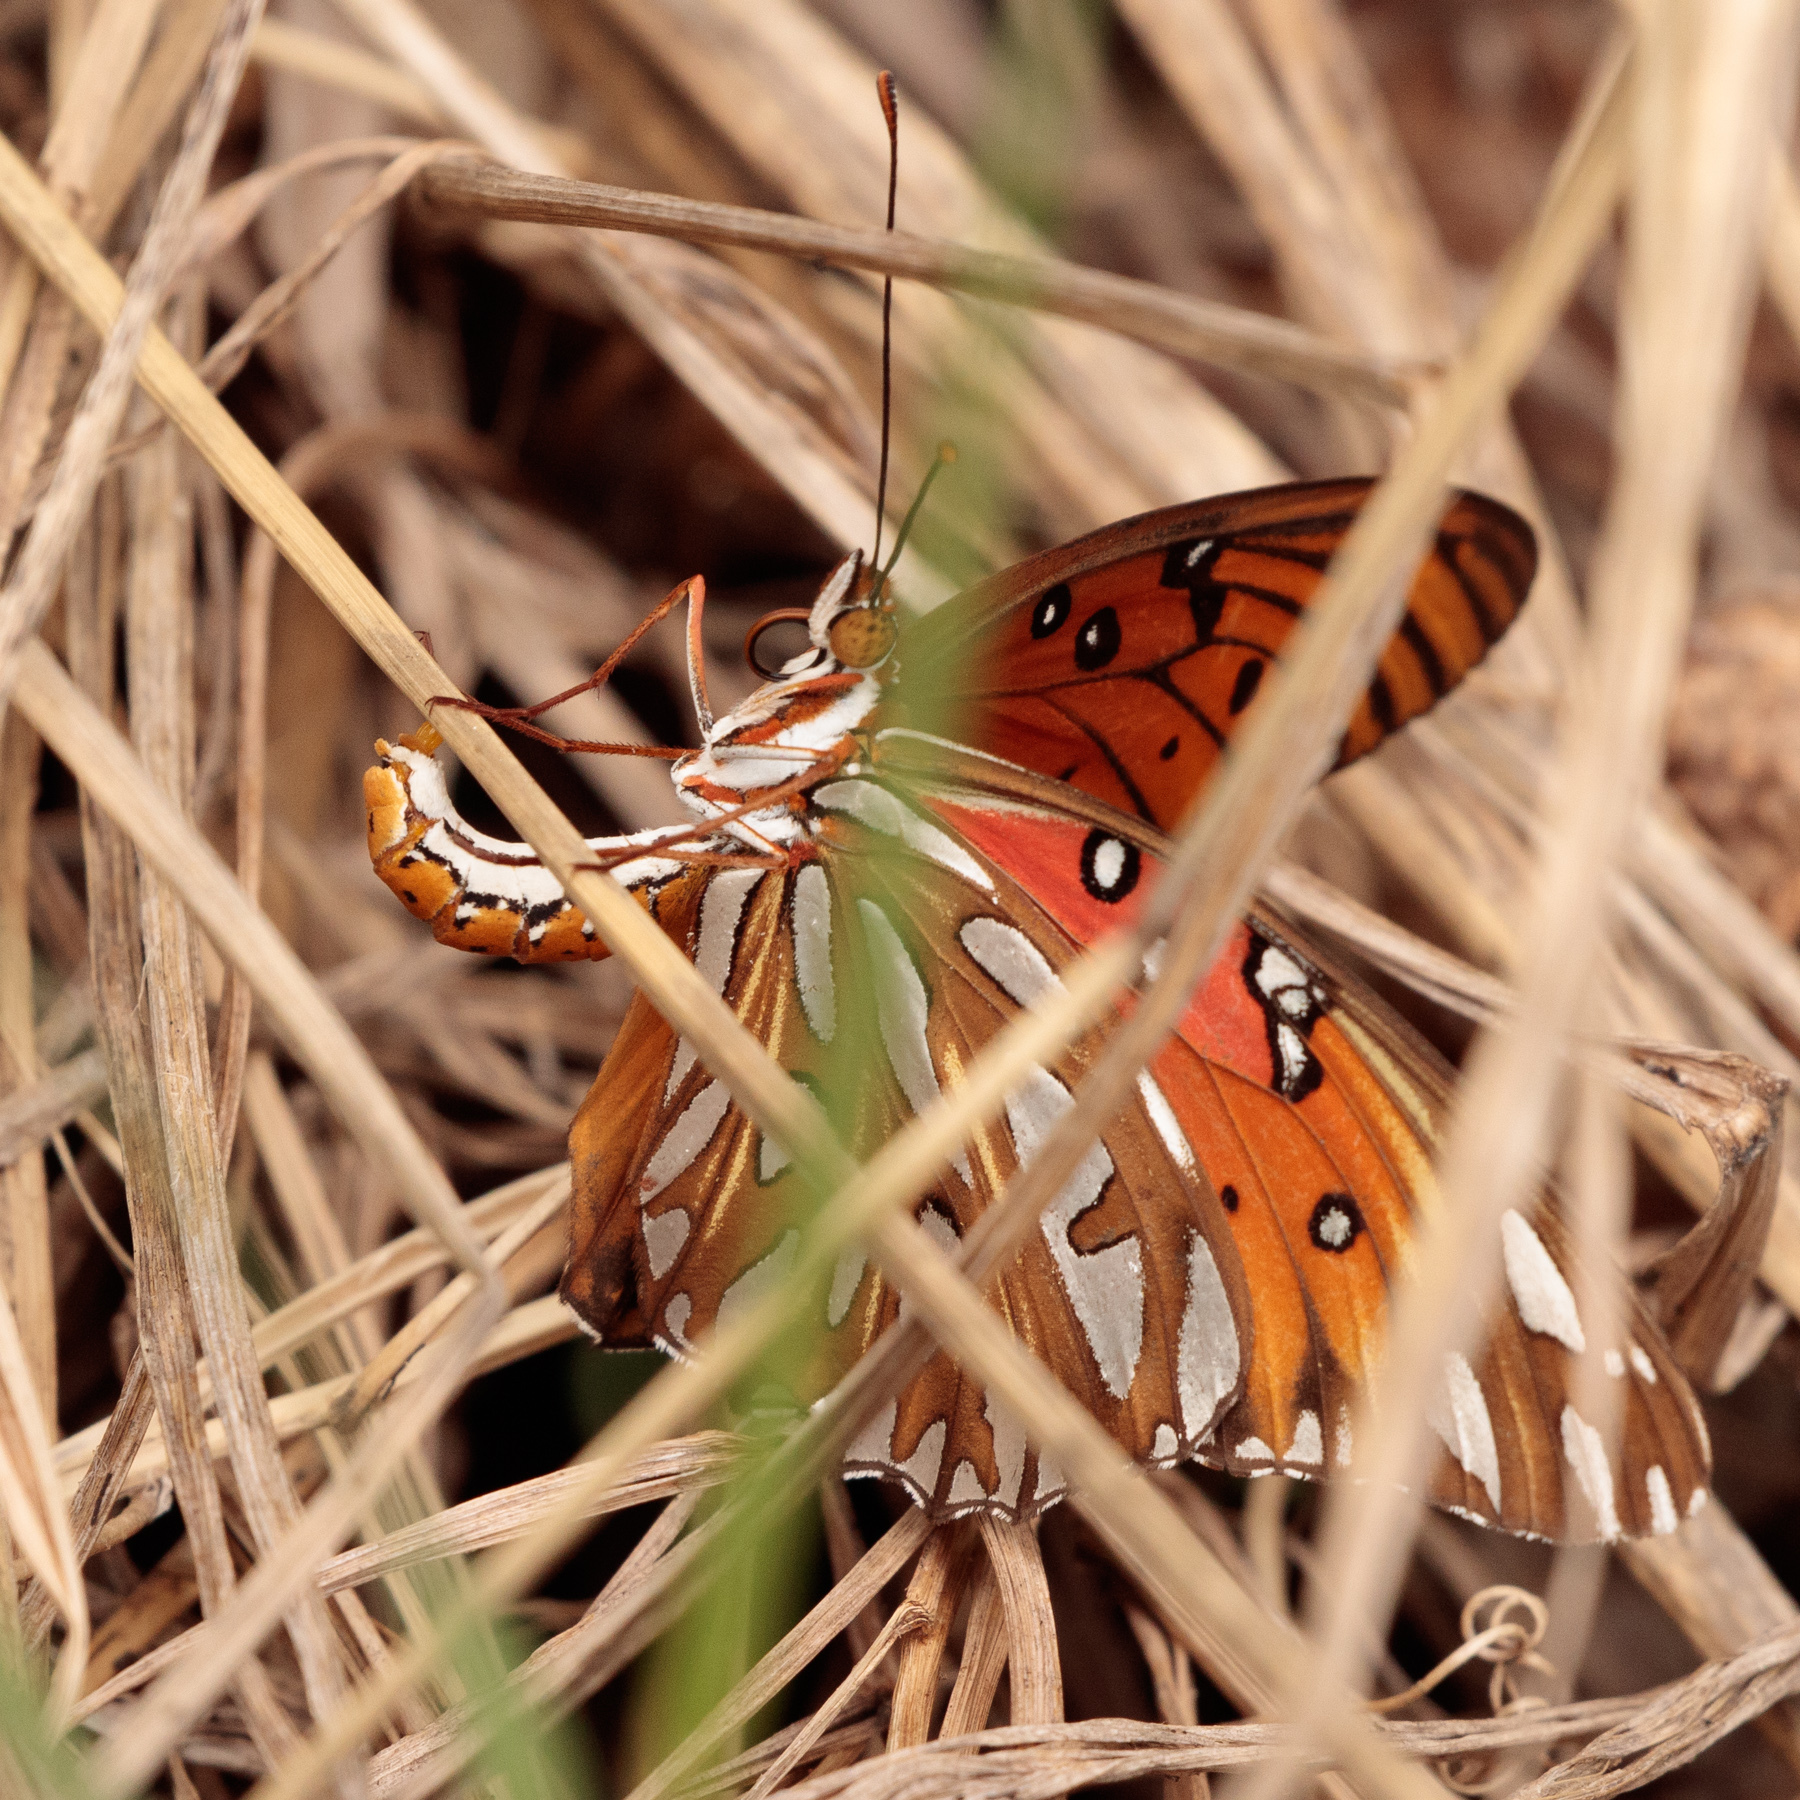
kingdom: Animalia
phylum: Arthropoda
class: Insecta
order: Lepidoptera
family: Nymphalidae
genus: Dione
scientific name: Dione vanillae
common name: Gulf fritillary
